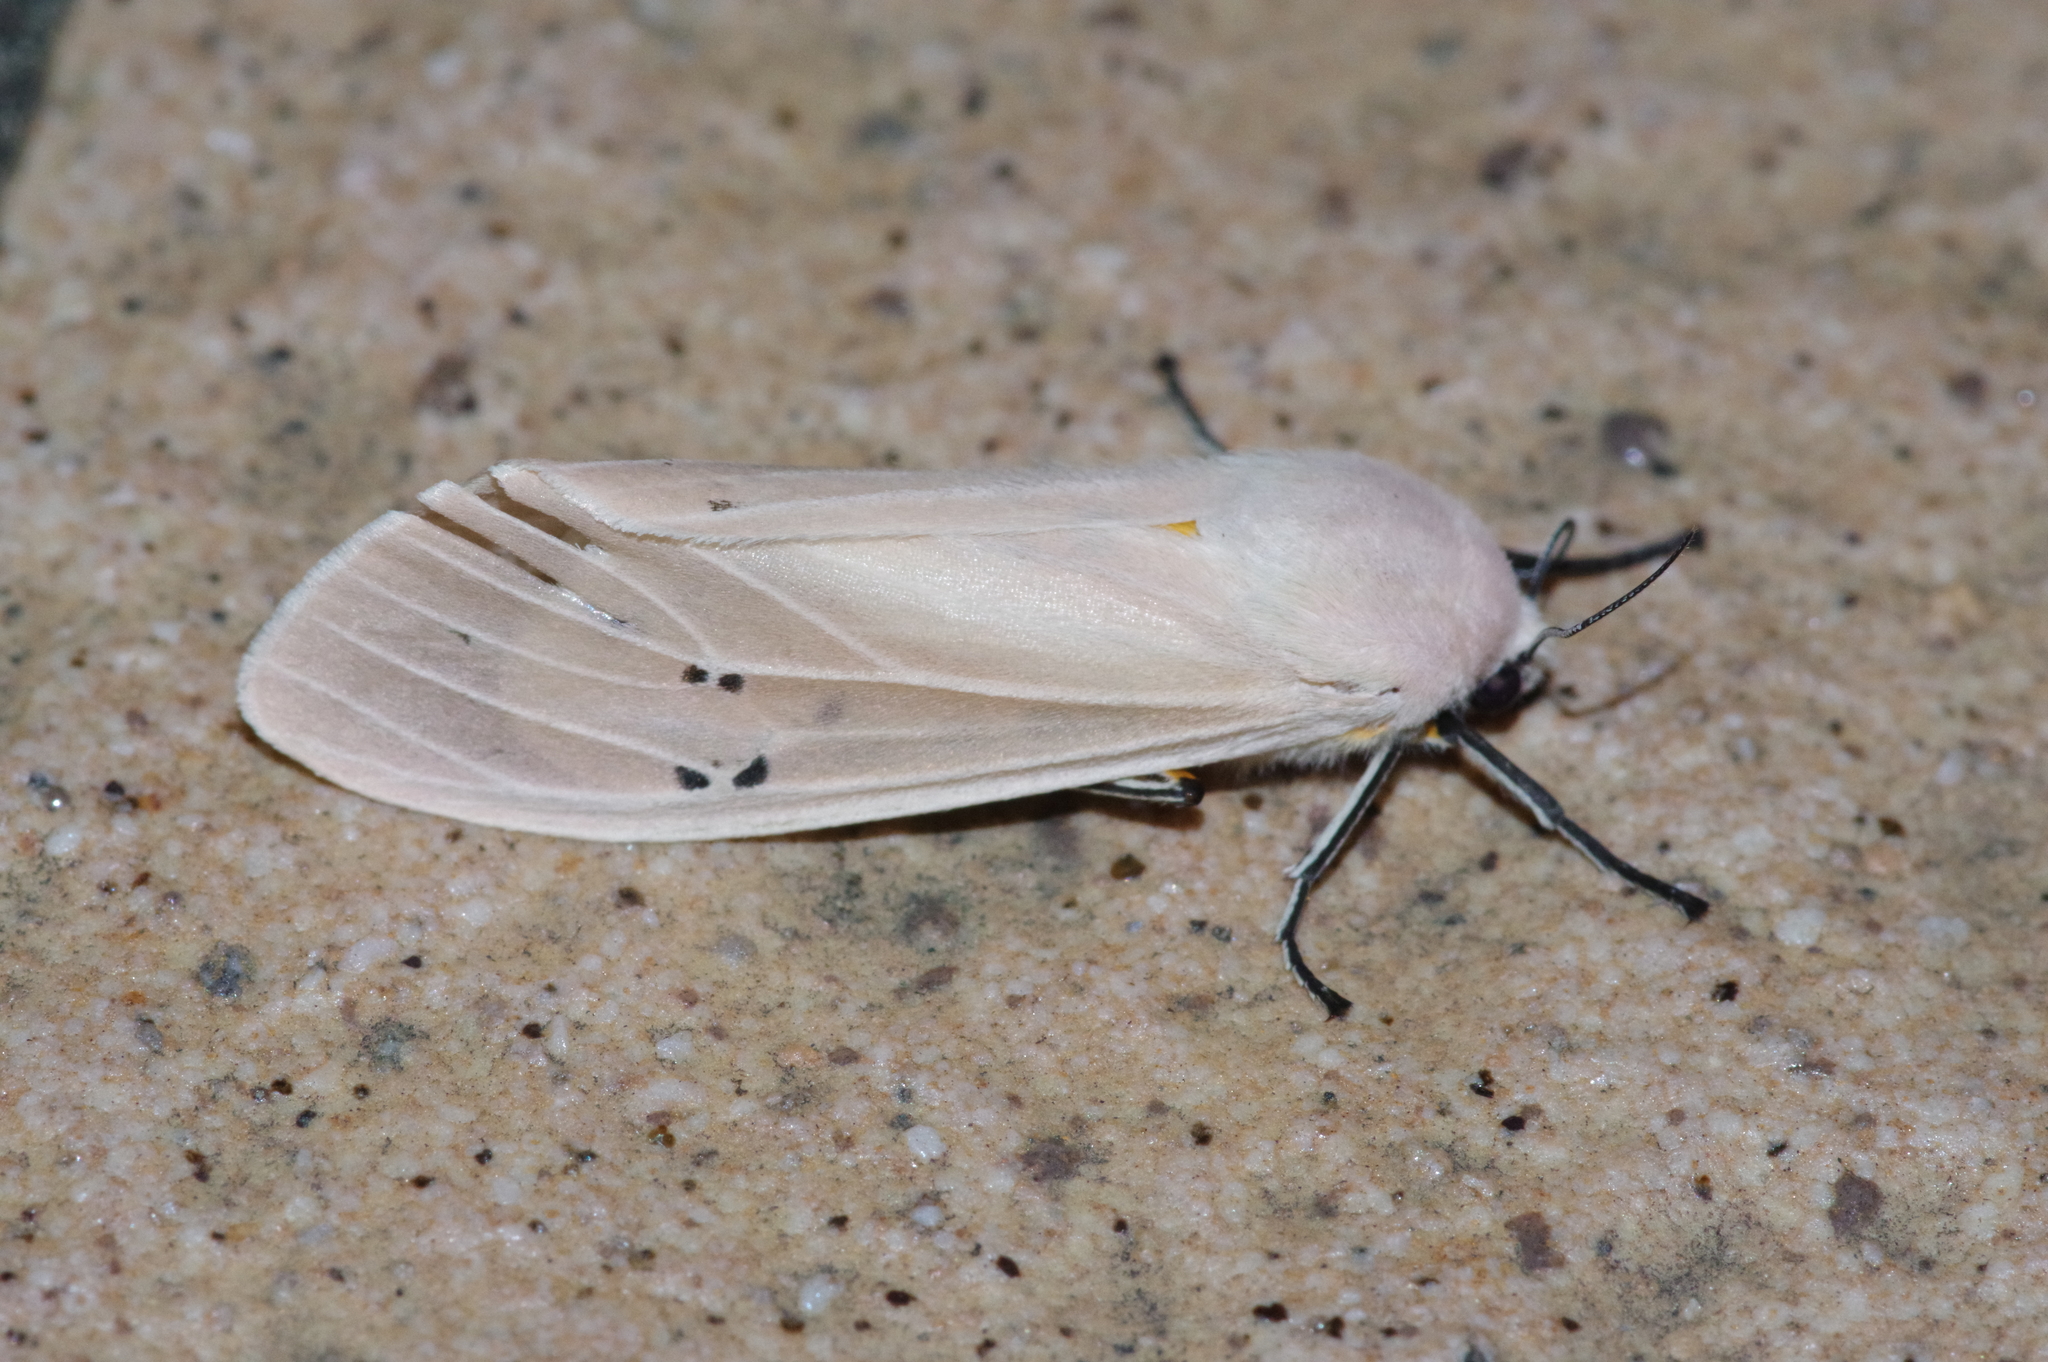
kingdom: Animalia
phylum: Arthropoda
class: Insecta
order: Lepidoptera
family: Erebidae
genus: Creatonotos
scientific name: Creatonotos transiens
